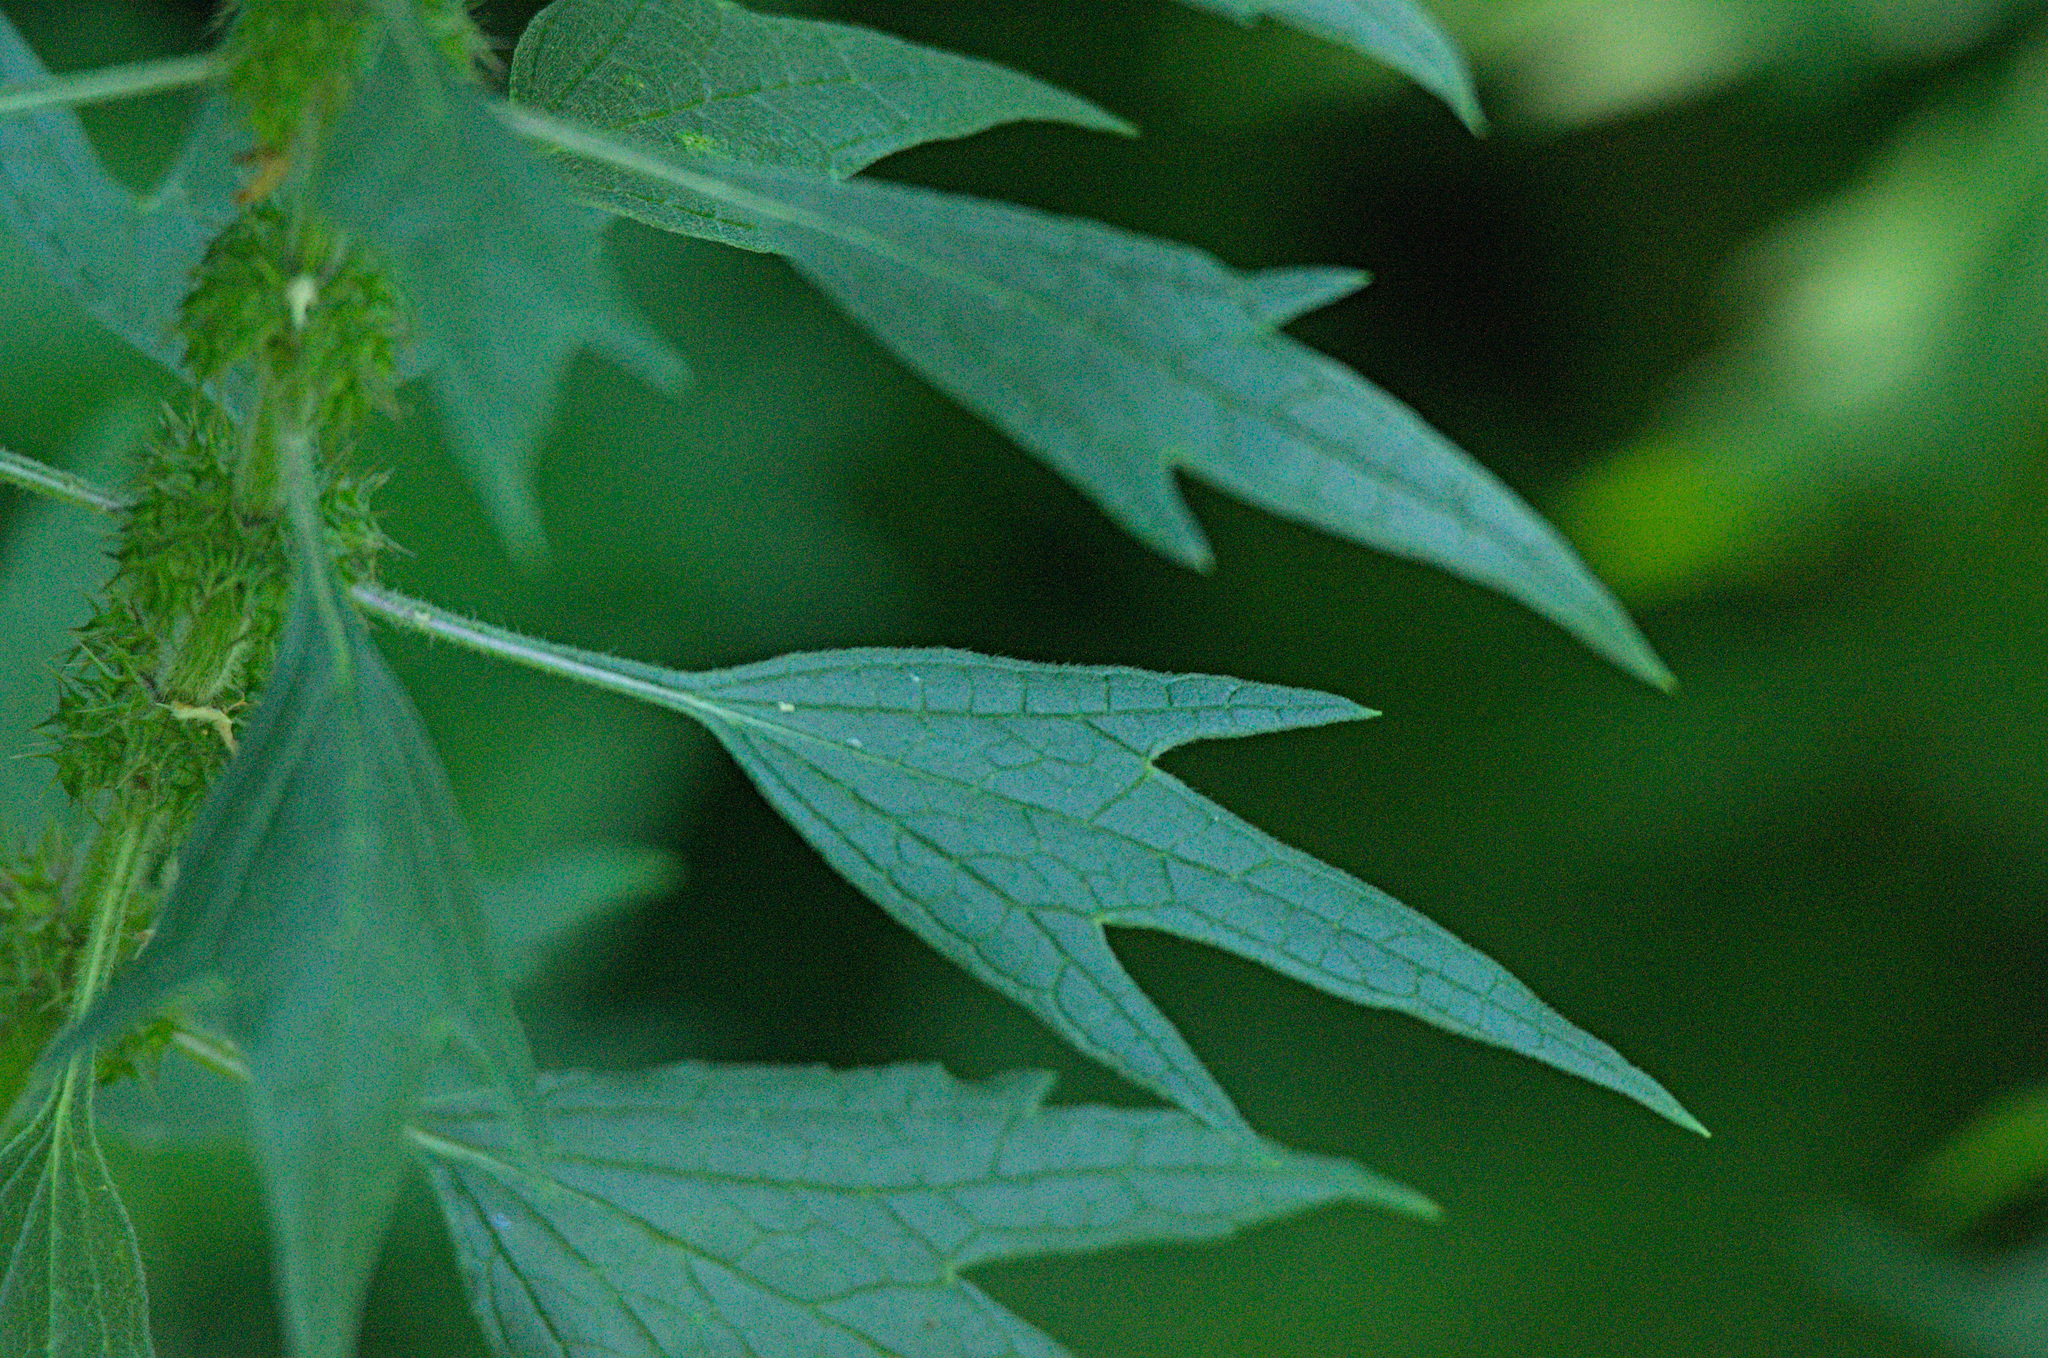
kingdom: Plantae
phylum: Tracheophyta
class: Magnoliopsida
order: Lamiales
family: Lamiaceae
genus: Leonurus
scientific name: Leonurus quinquelobatus
